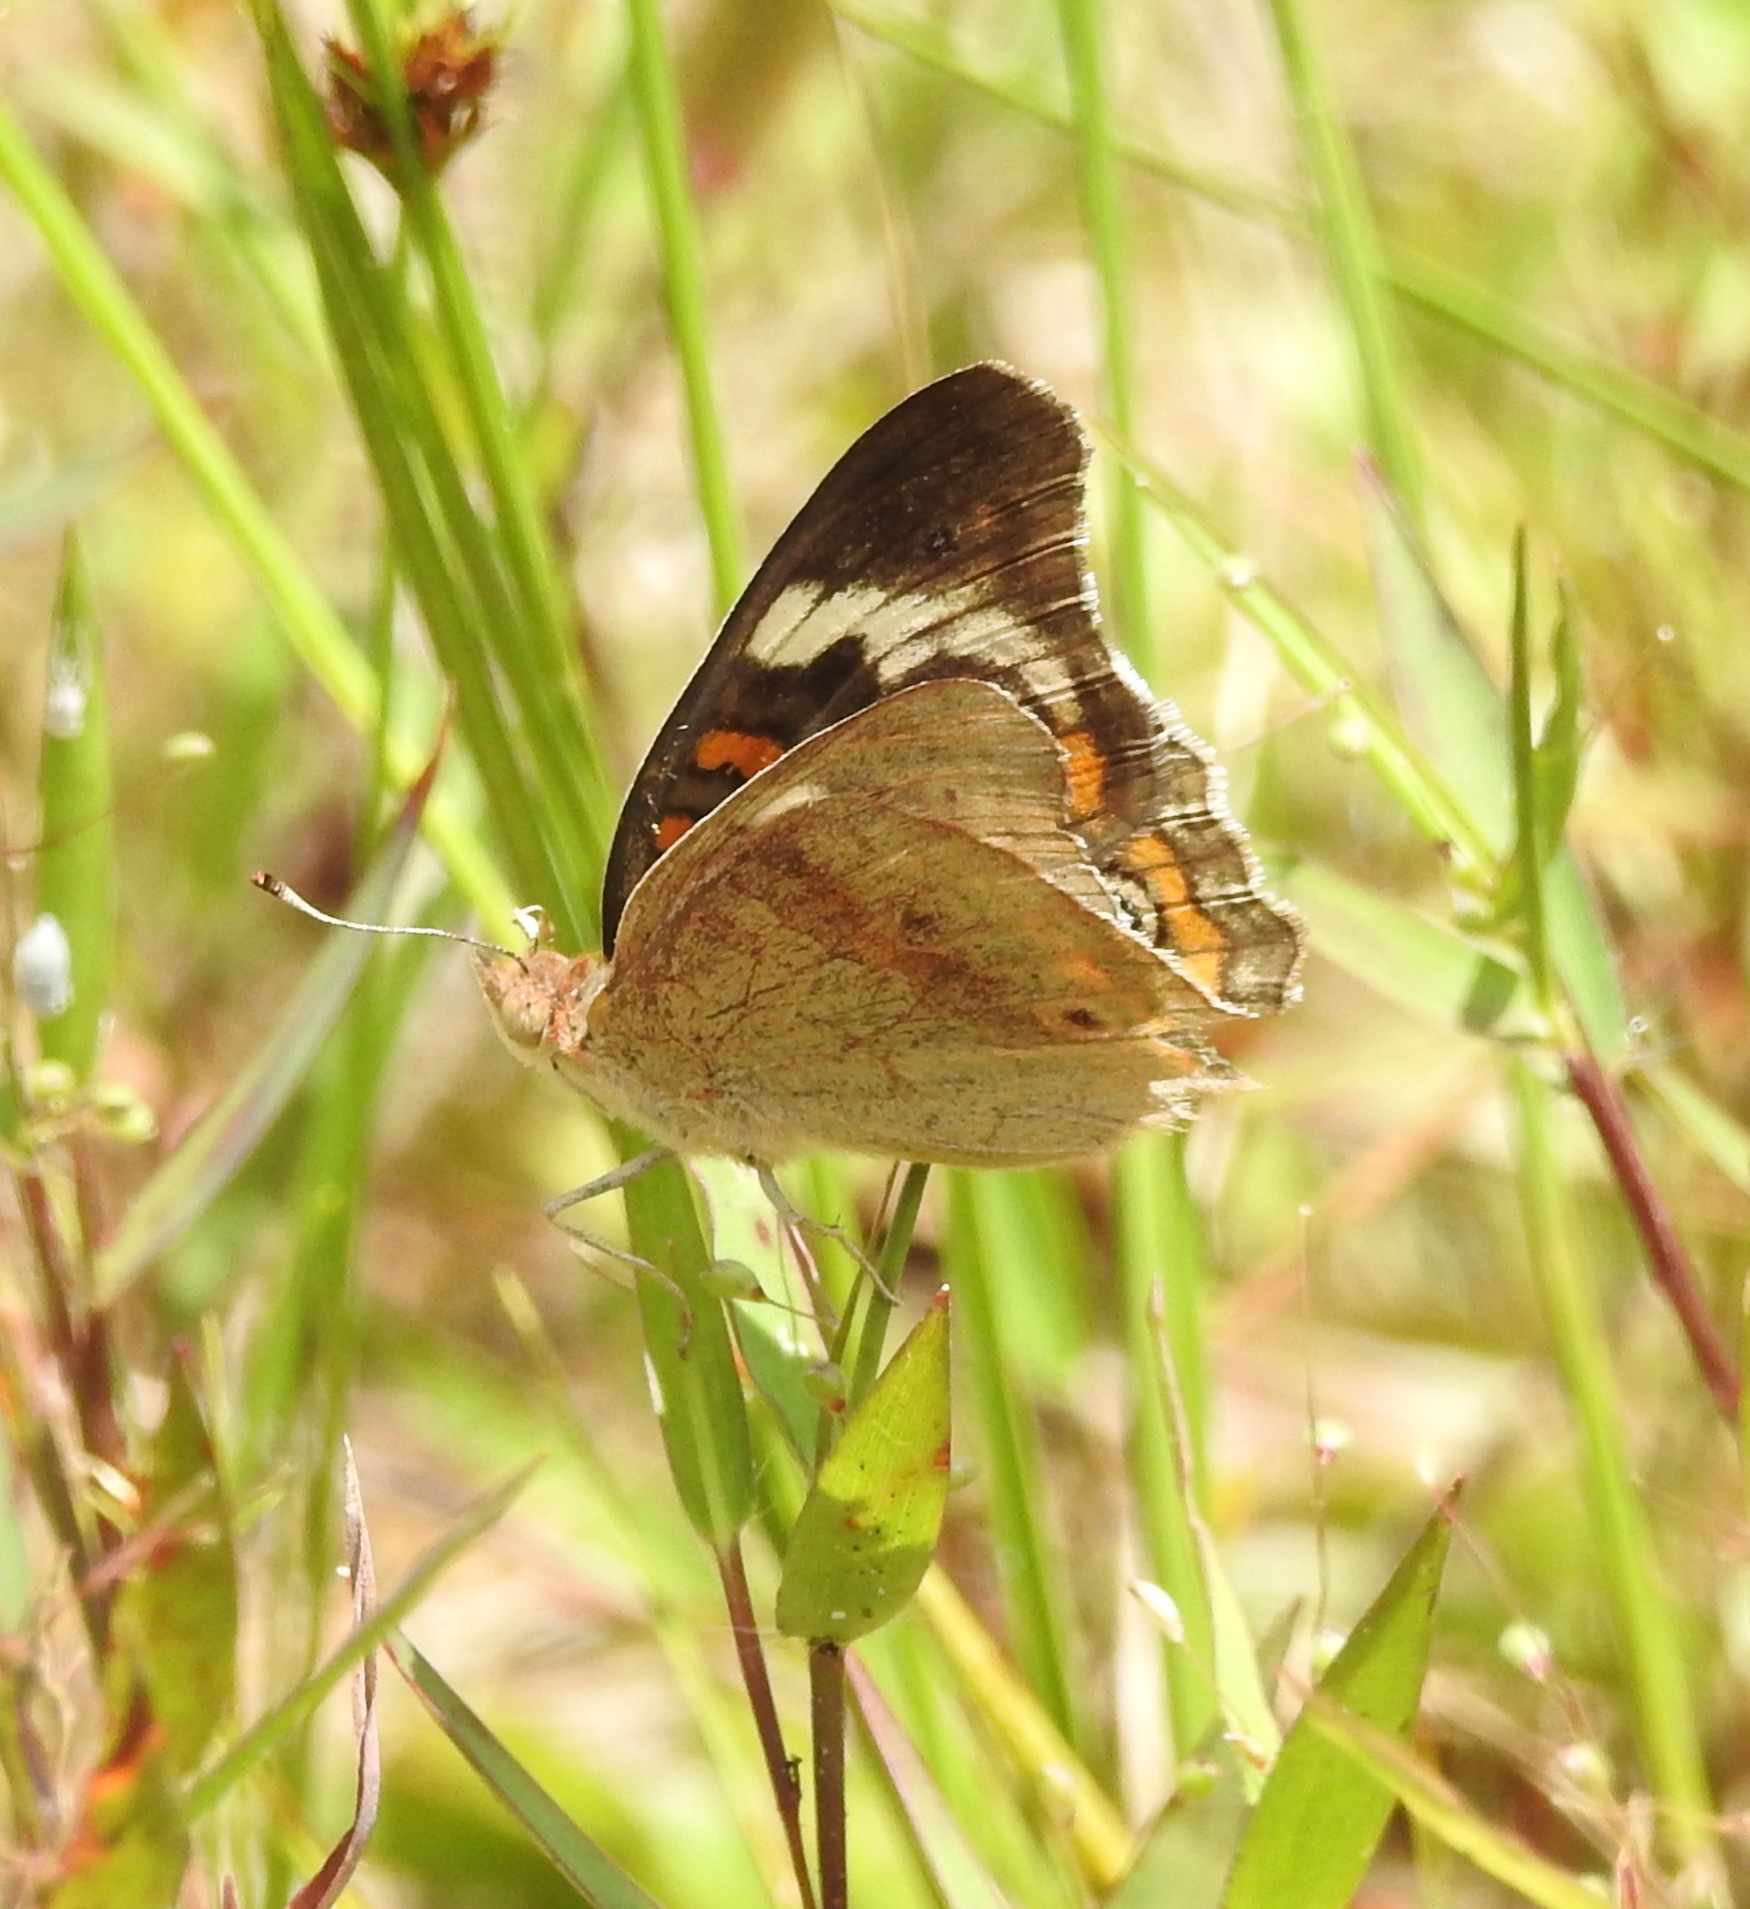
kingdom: Animalia
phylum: Arthropoda
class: Insecta
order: Lepidoptera
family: Nymphalidae
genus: Junonia
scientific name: Junonia coenia
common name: Common buckeye
